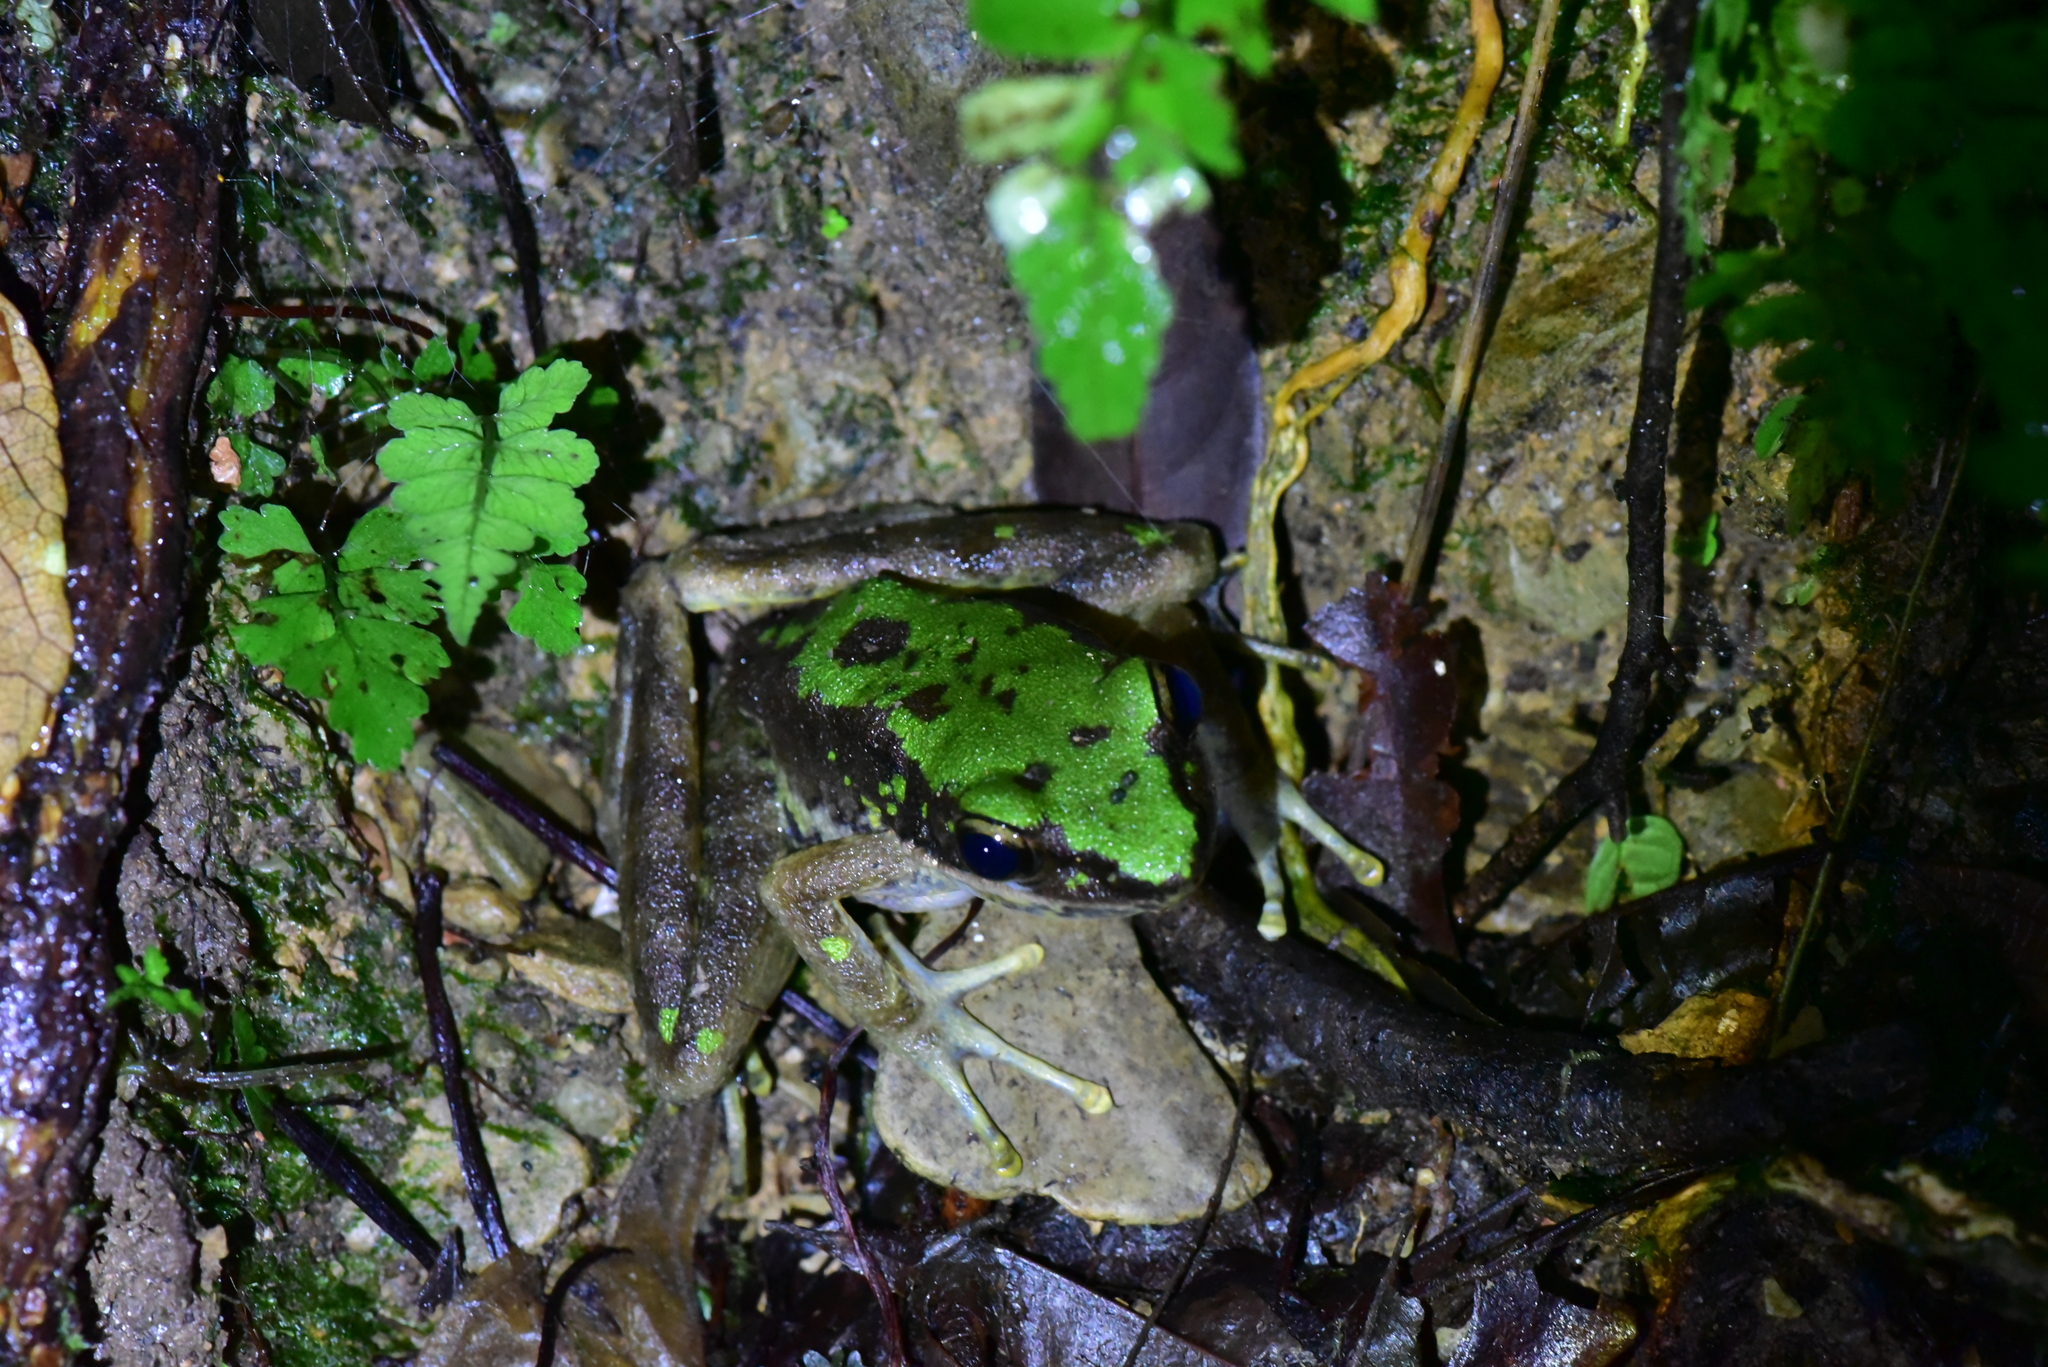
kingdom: Animalia
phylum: Chordata
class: Amphibia
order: Anura
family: Ranidae
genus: Odorrana
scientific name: Odorrana swinhoana
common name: Bangkimtsing frog
